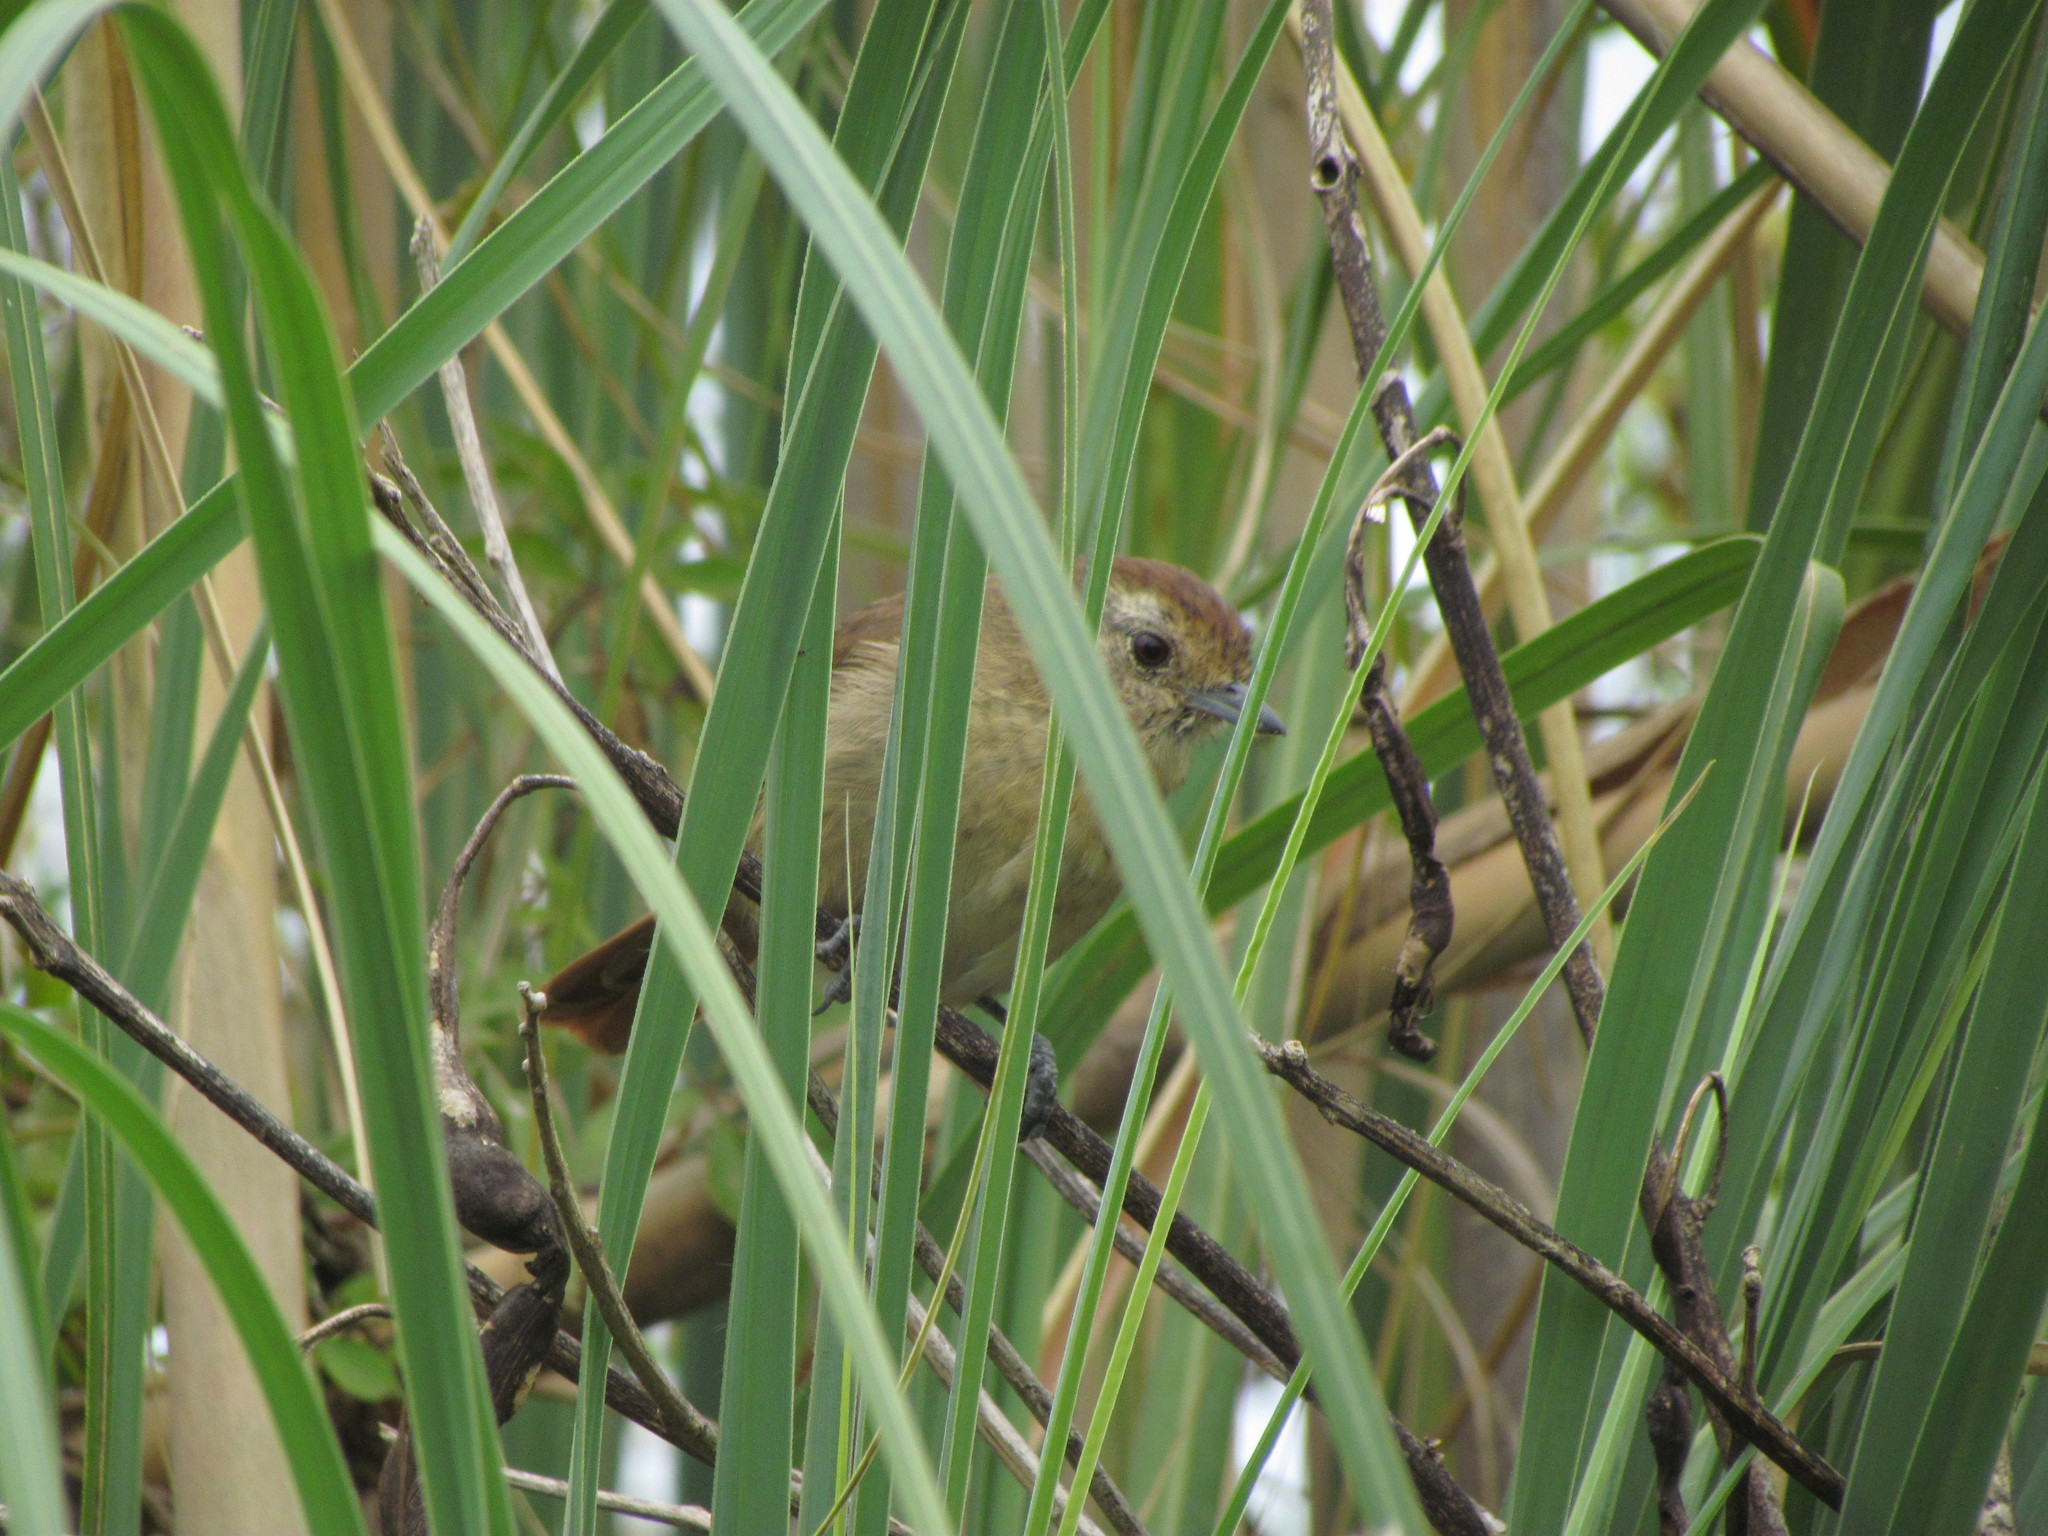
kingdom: Animalia
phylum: Chordata
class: Aves
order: Passeriformes
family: Thamnophilidae
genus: Thamnophilus
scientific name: Thamnophilus ruficapillus
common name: Rufous-capped antshrike
